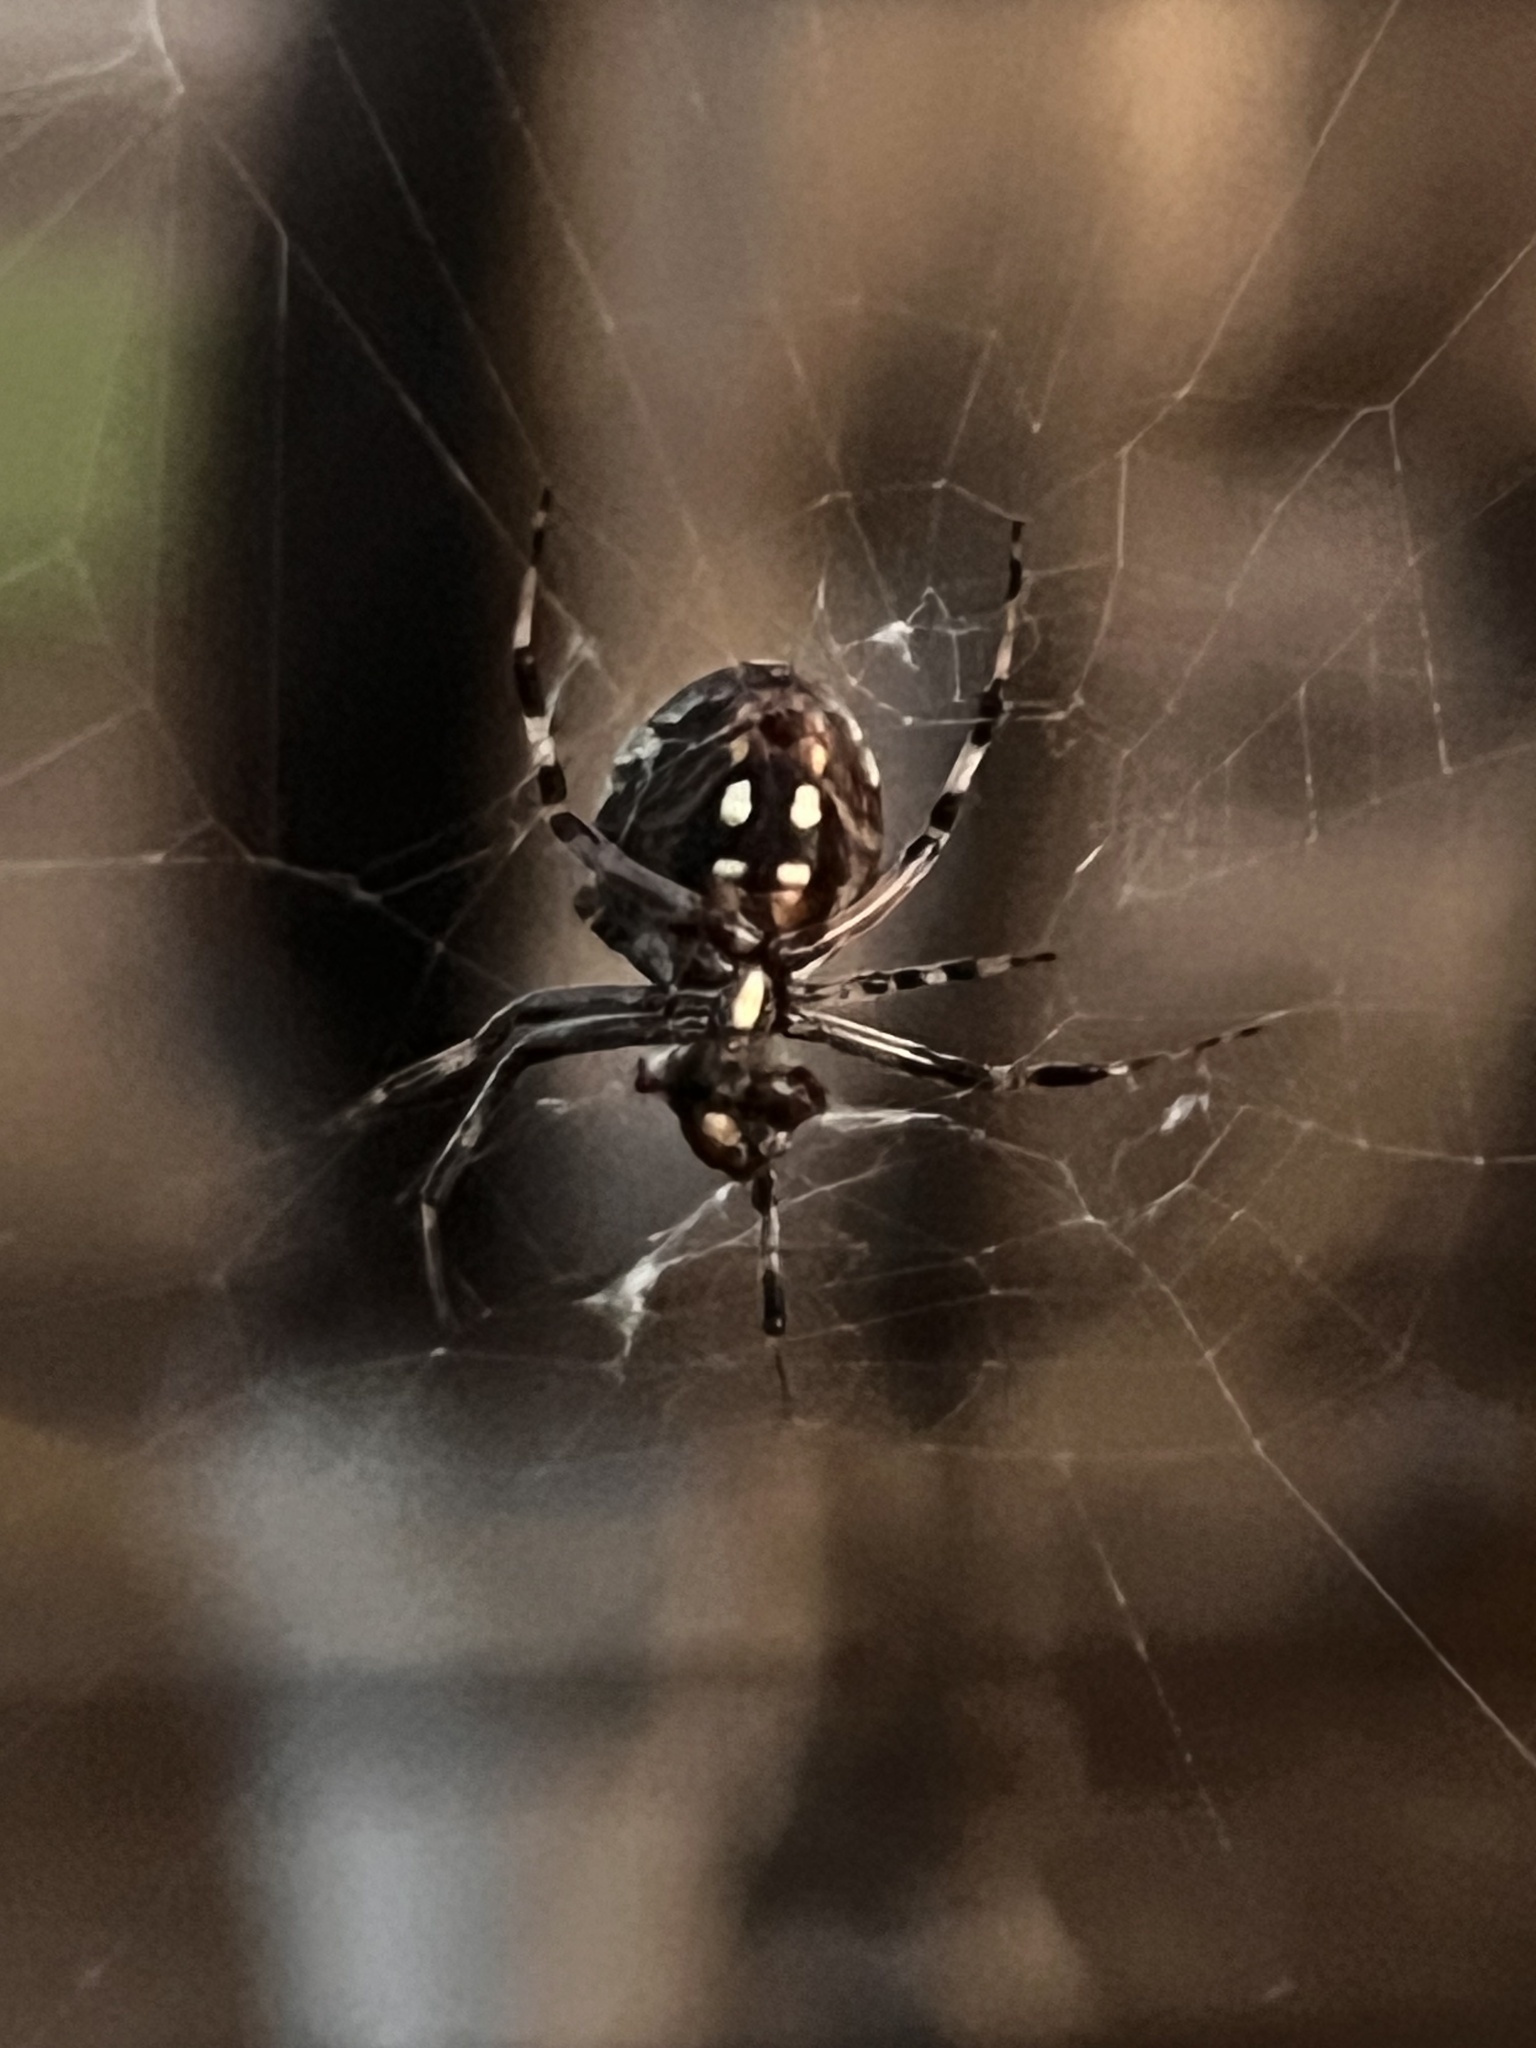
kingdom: Animalia
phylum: Arthropoda
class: Arachnida
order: Araneae
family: Araneidae
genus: Neoscona
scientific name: Neoscona oaxacensis
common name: Orb weavers
